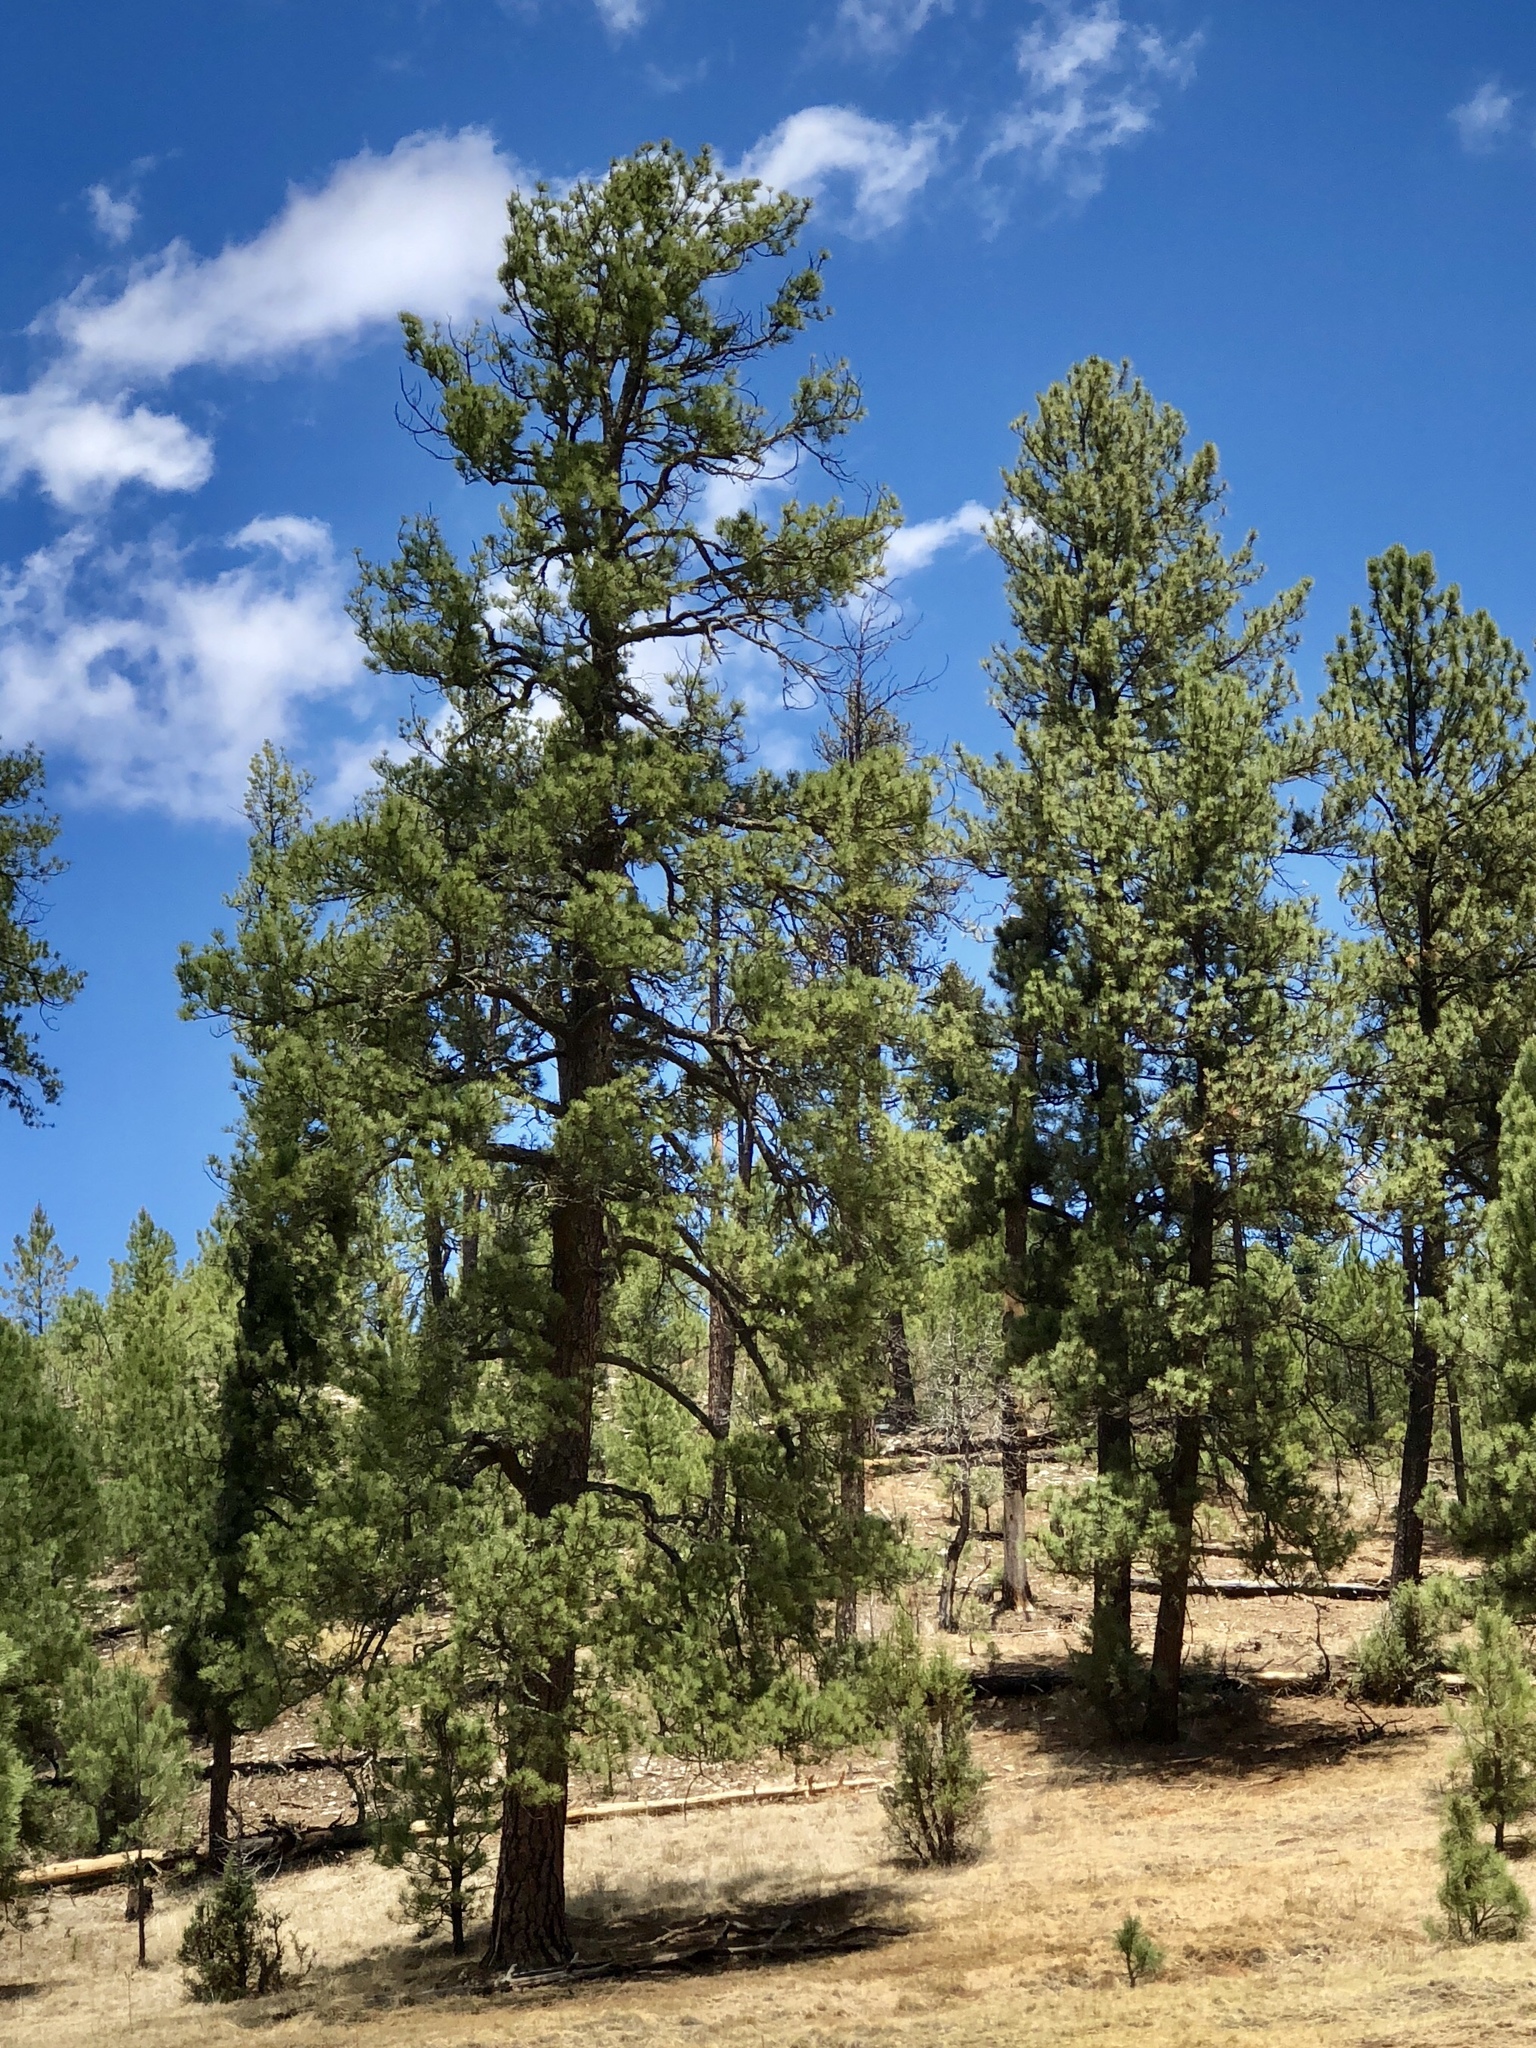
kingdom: Plantae
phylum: Tracheophyta
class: Pinopsida
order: Pinales
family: Pinaceae
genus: Pinus
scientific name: Pinus ponderosa
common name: Western yellow-pine
